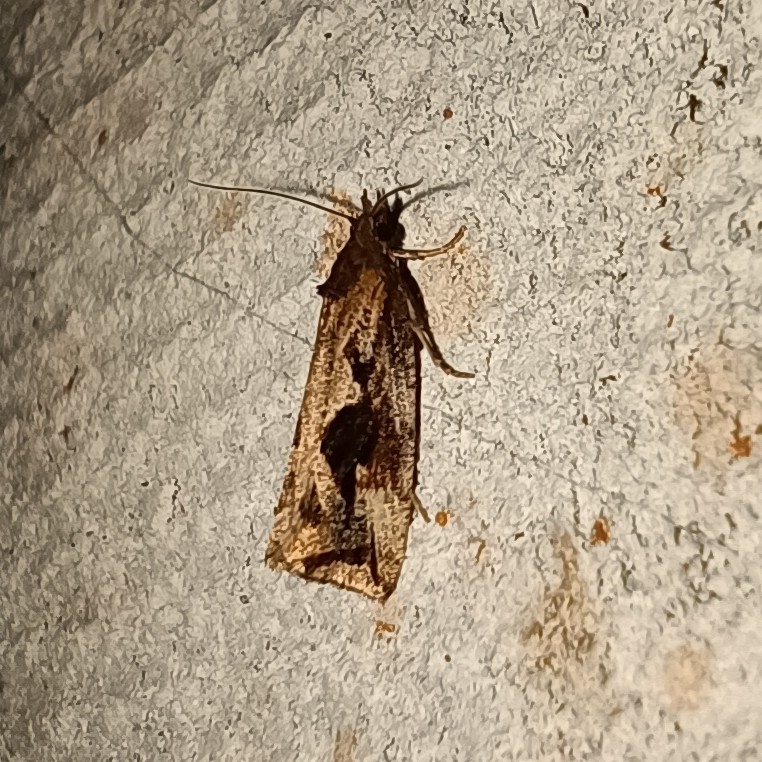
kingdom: Animalia
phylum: Arthropoda
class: Insecta
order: Lepidoptera
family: Tortricidae
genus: Endothenia
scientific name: Endothenia quadrimaculana
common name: Tortricid moth
